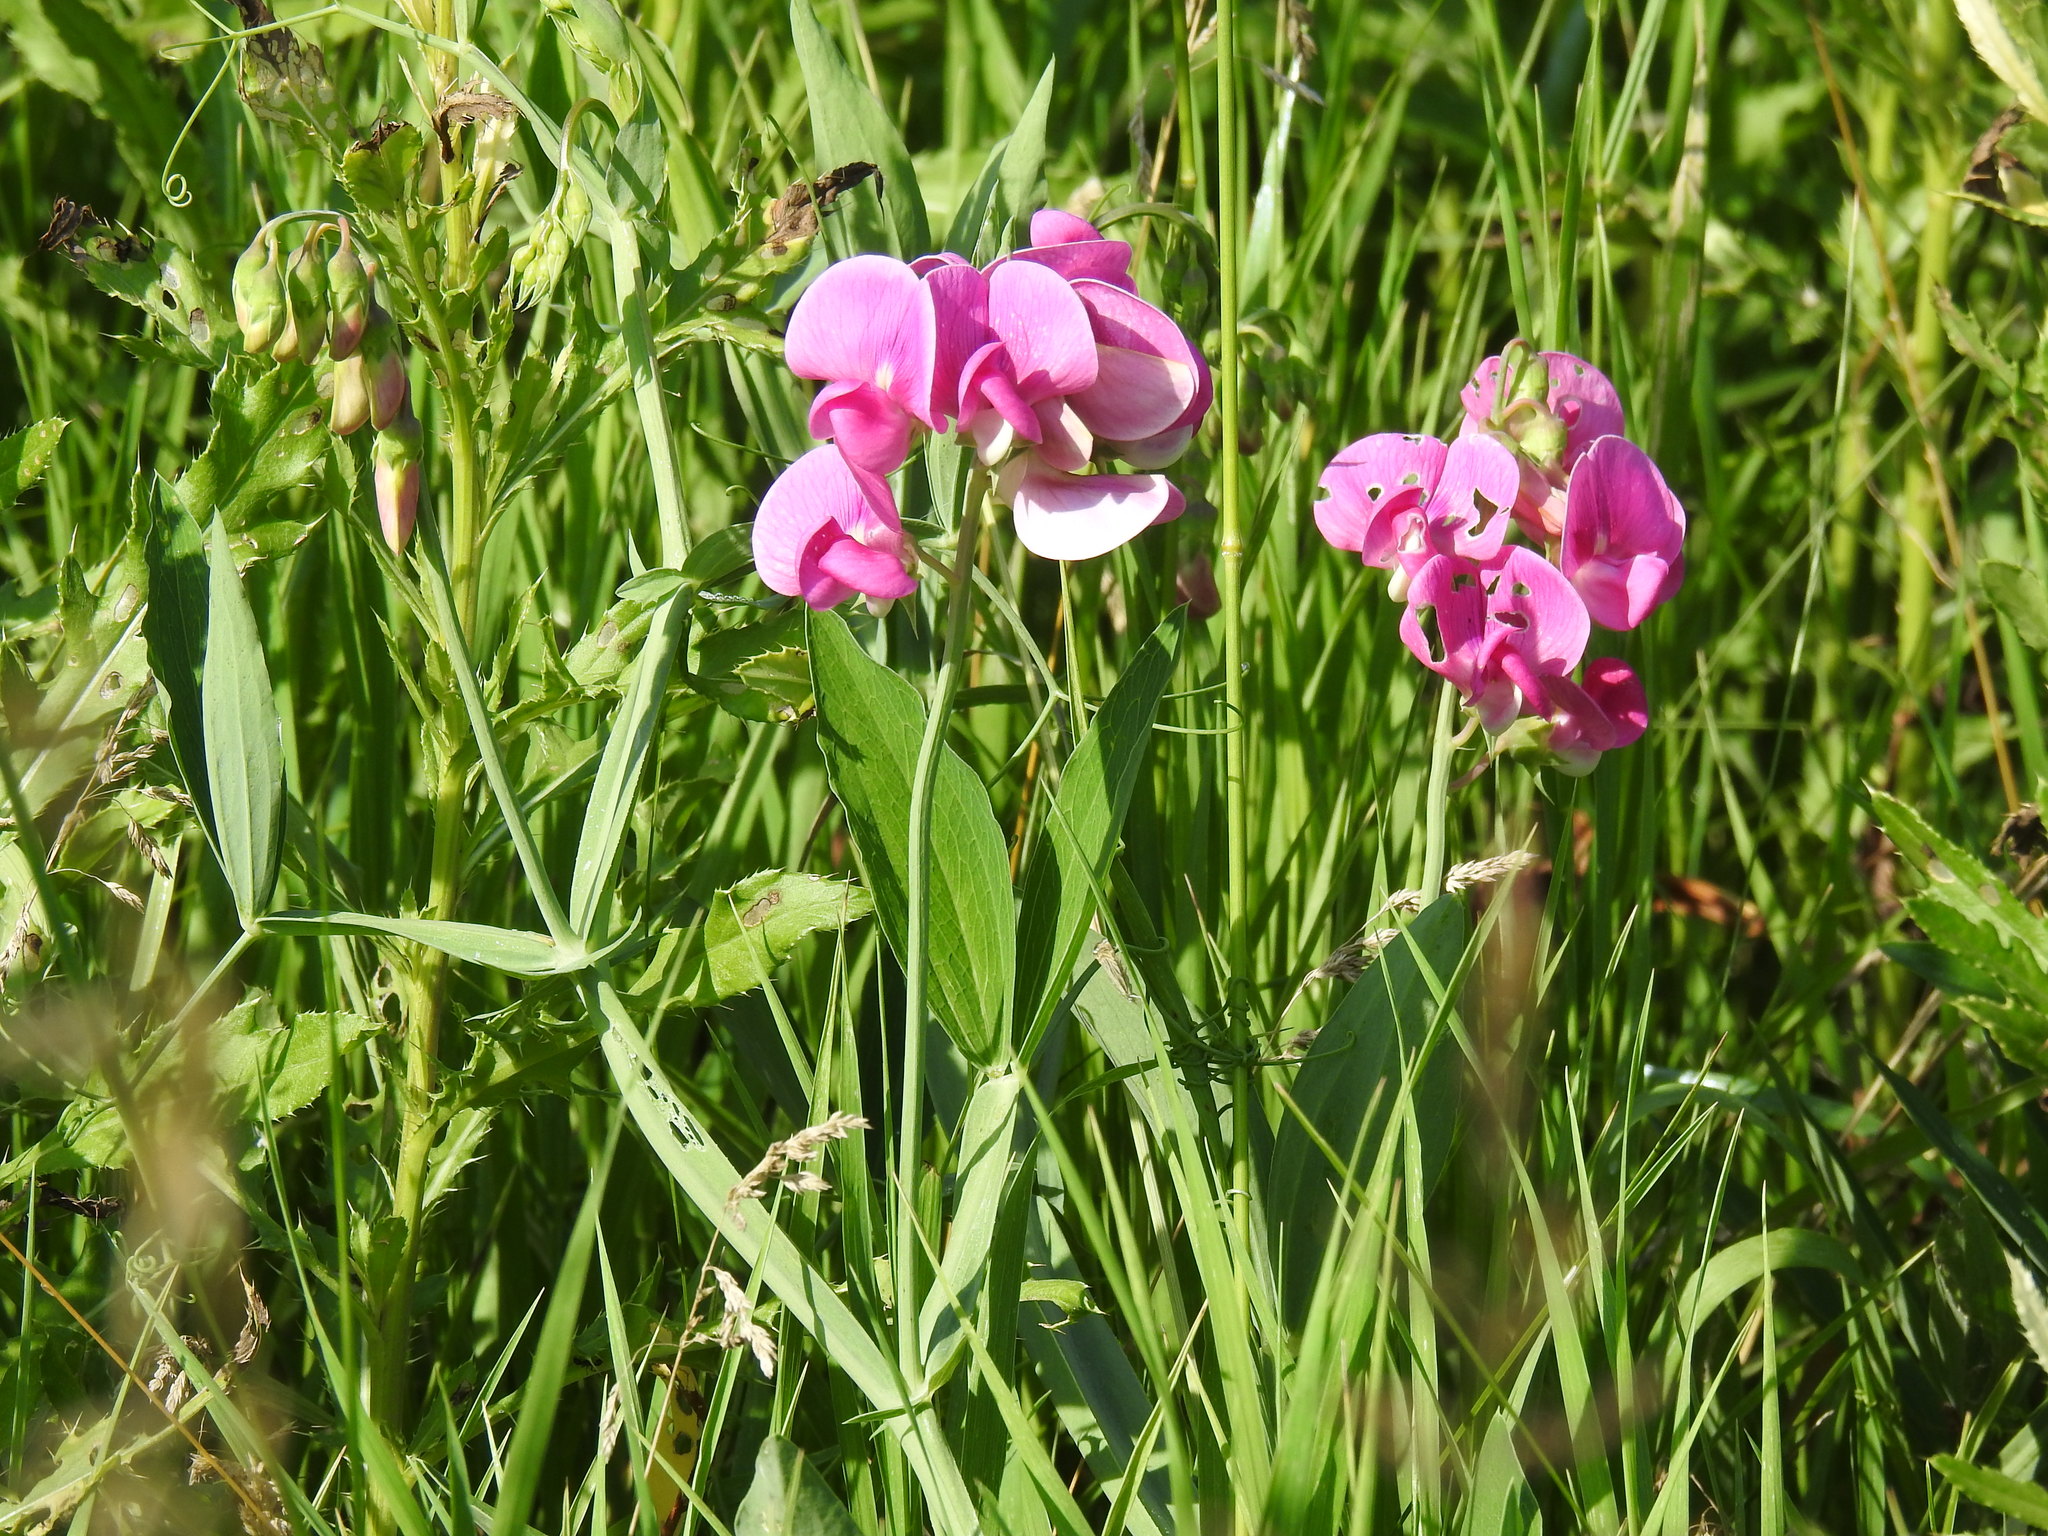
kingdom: Plantae
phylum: Tracheophyta
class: Magnoliopsida
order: Fabales
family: Fabaceae
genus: Lathyrus
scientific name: Lathyrus latifolius
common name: Perennial pea
